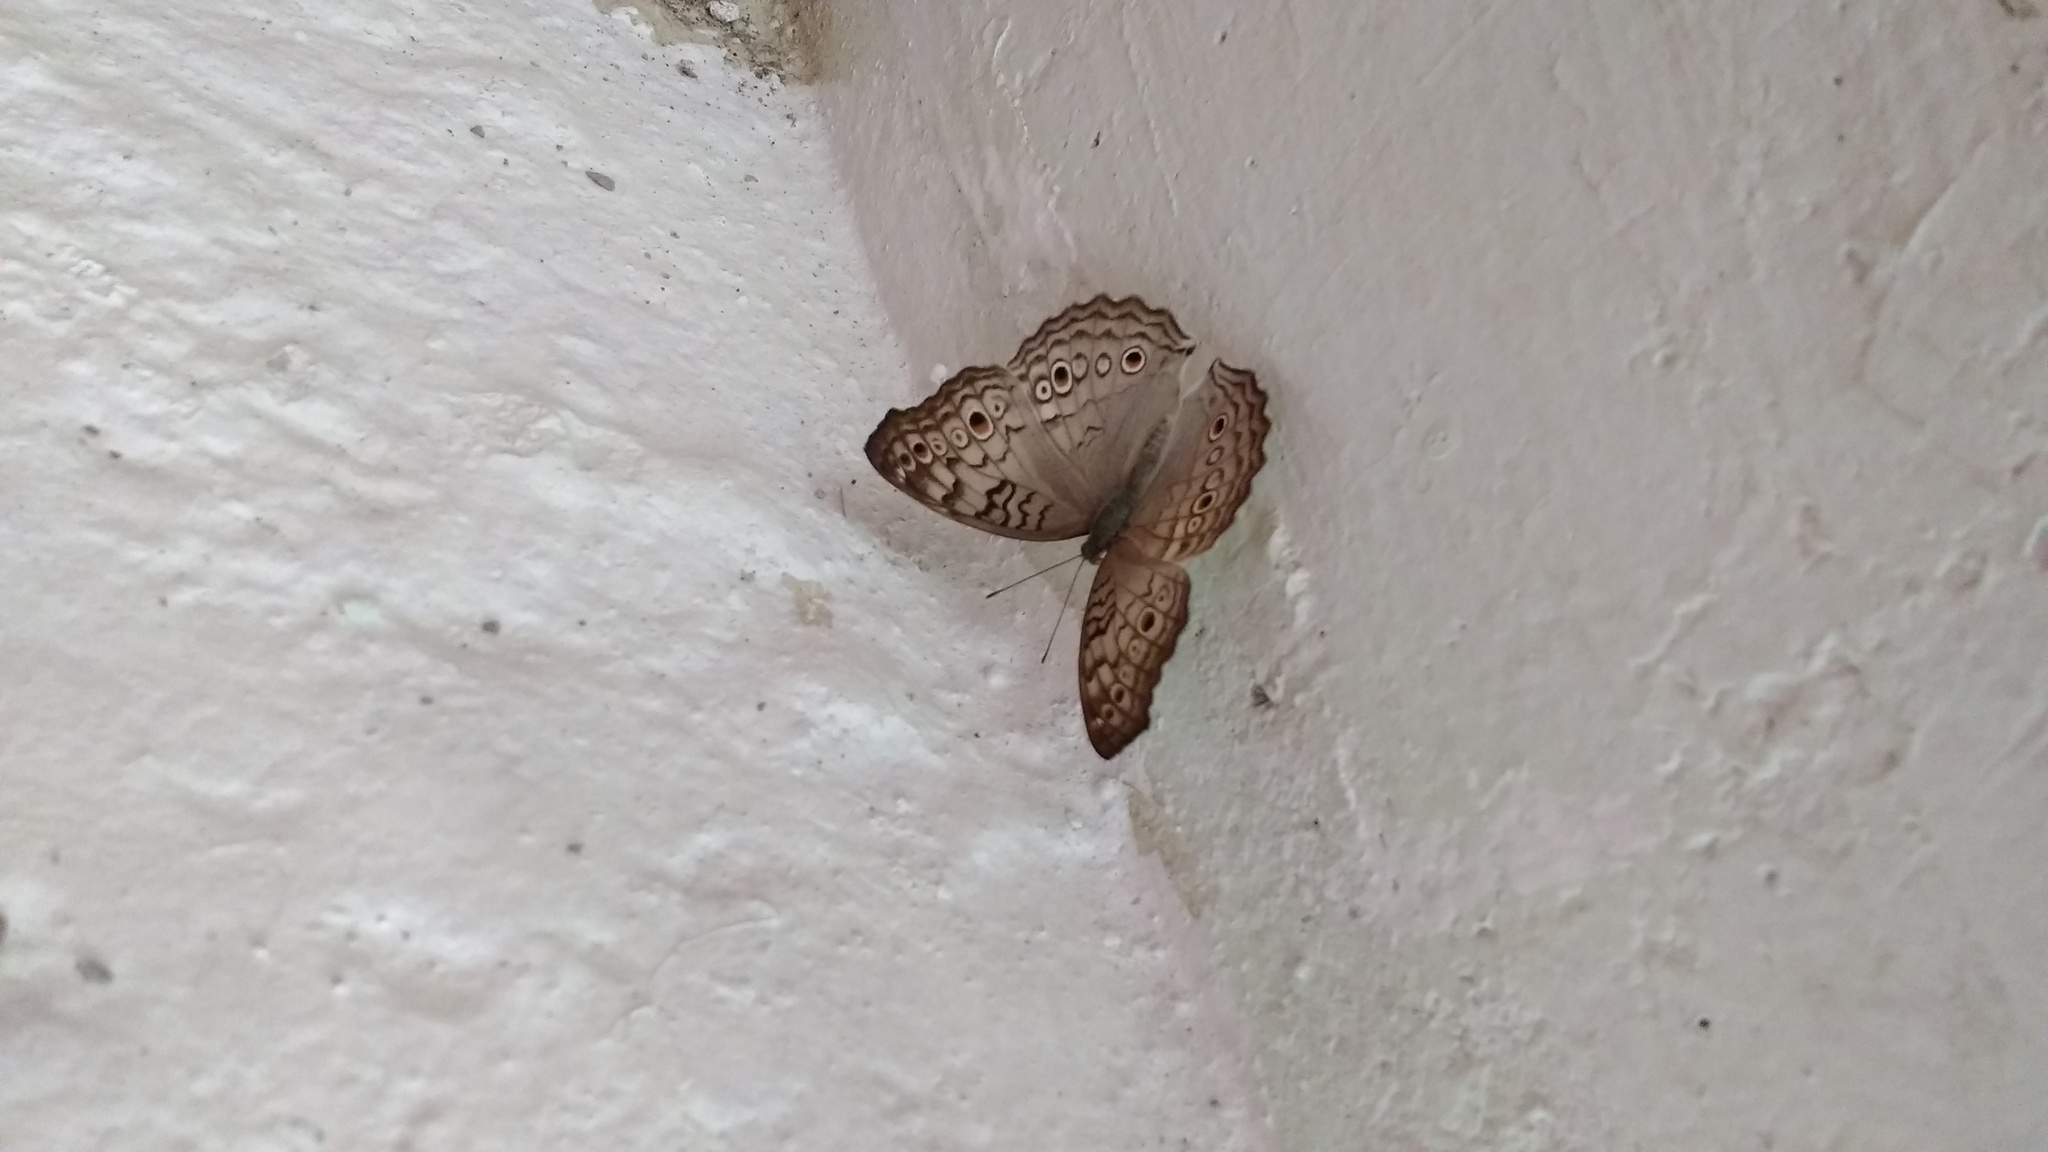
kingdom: Animalia
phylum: Arthropoda
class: Insecta
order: Lepidoptera
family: Nymphalidae
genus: Junonia
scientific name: Junonia atlites
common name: Grey pansy
